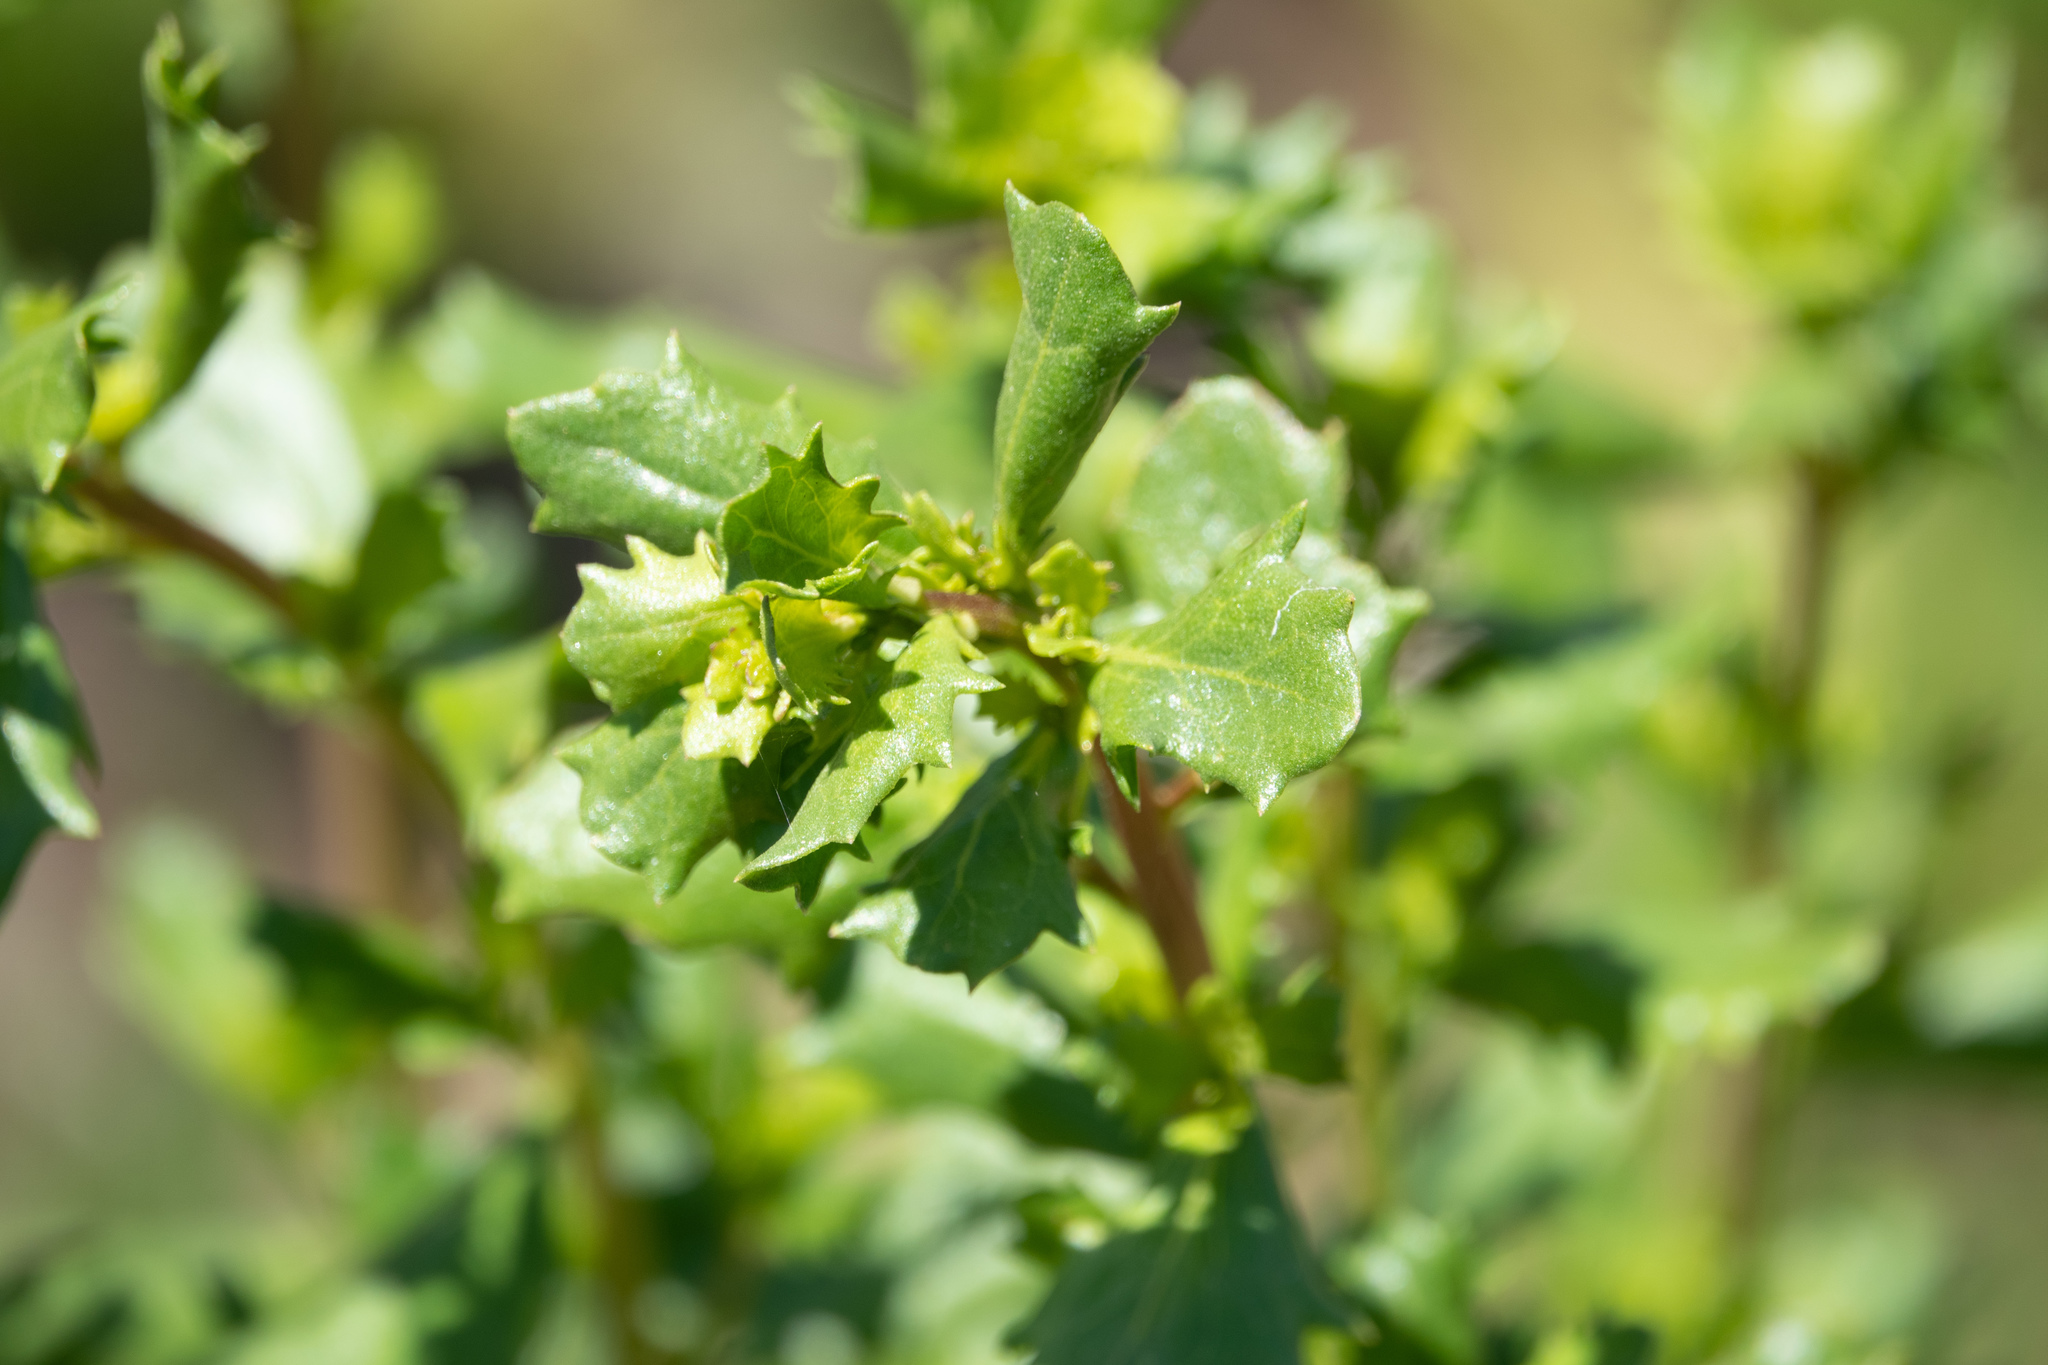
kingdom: Plantae
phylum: Tracheophyta
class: Magnoliopsida
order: Asterales
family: Asteraceae
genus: Baccharis
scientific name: Baccharis pilularis
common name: Coyotebrush
